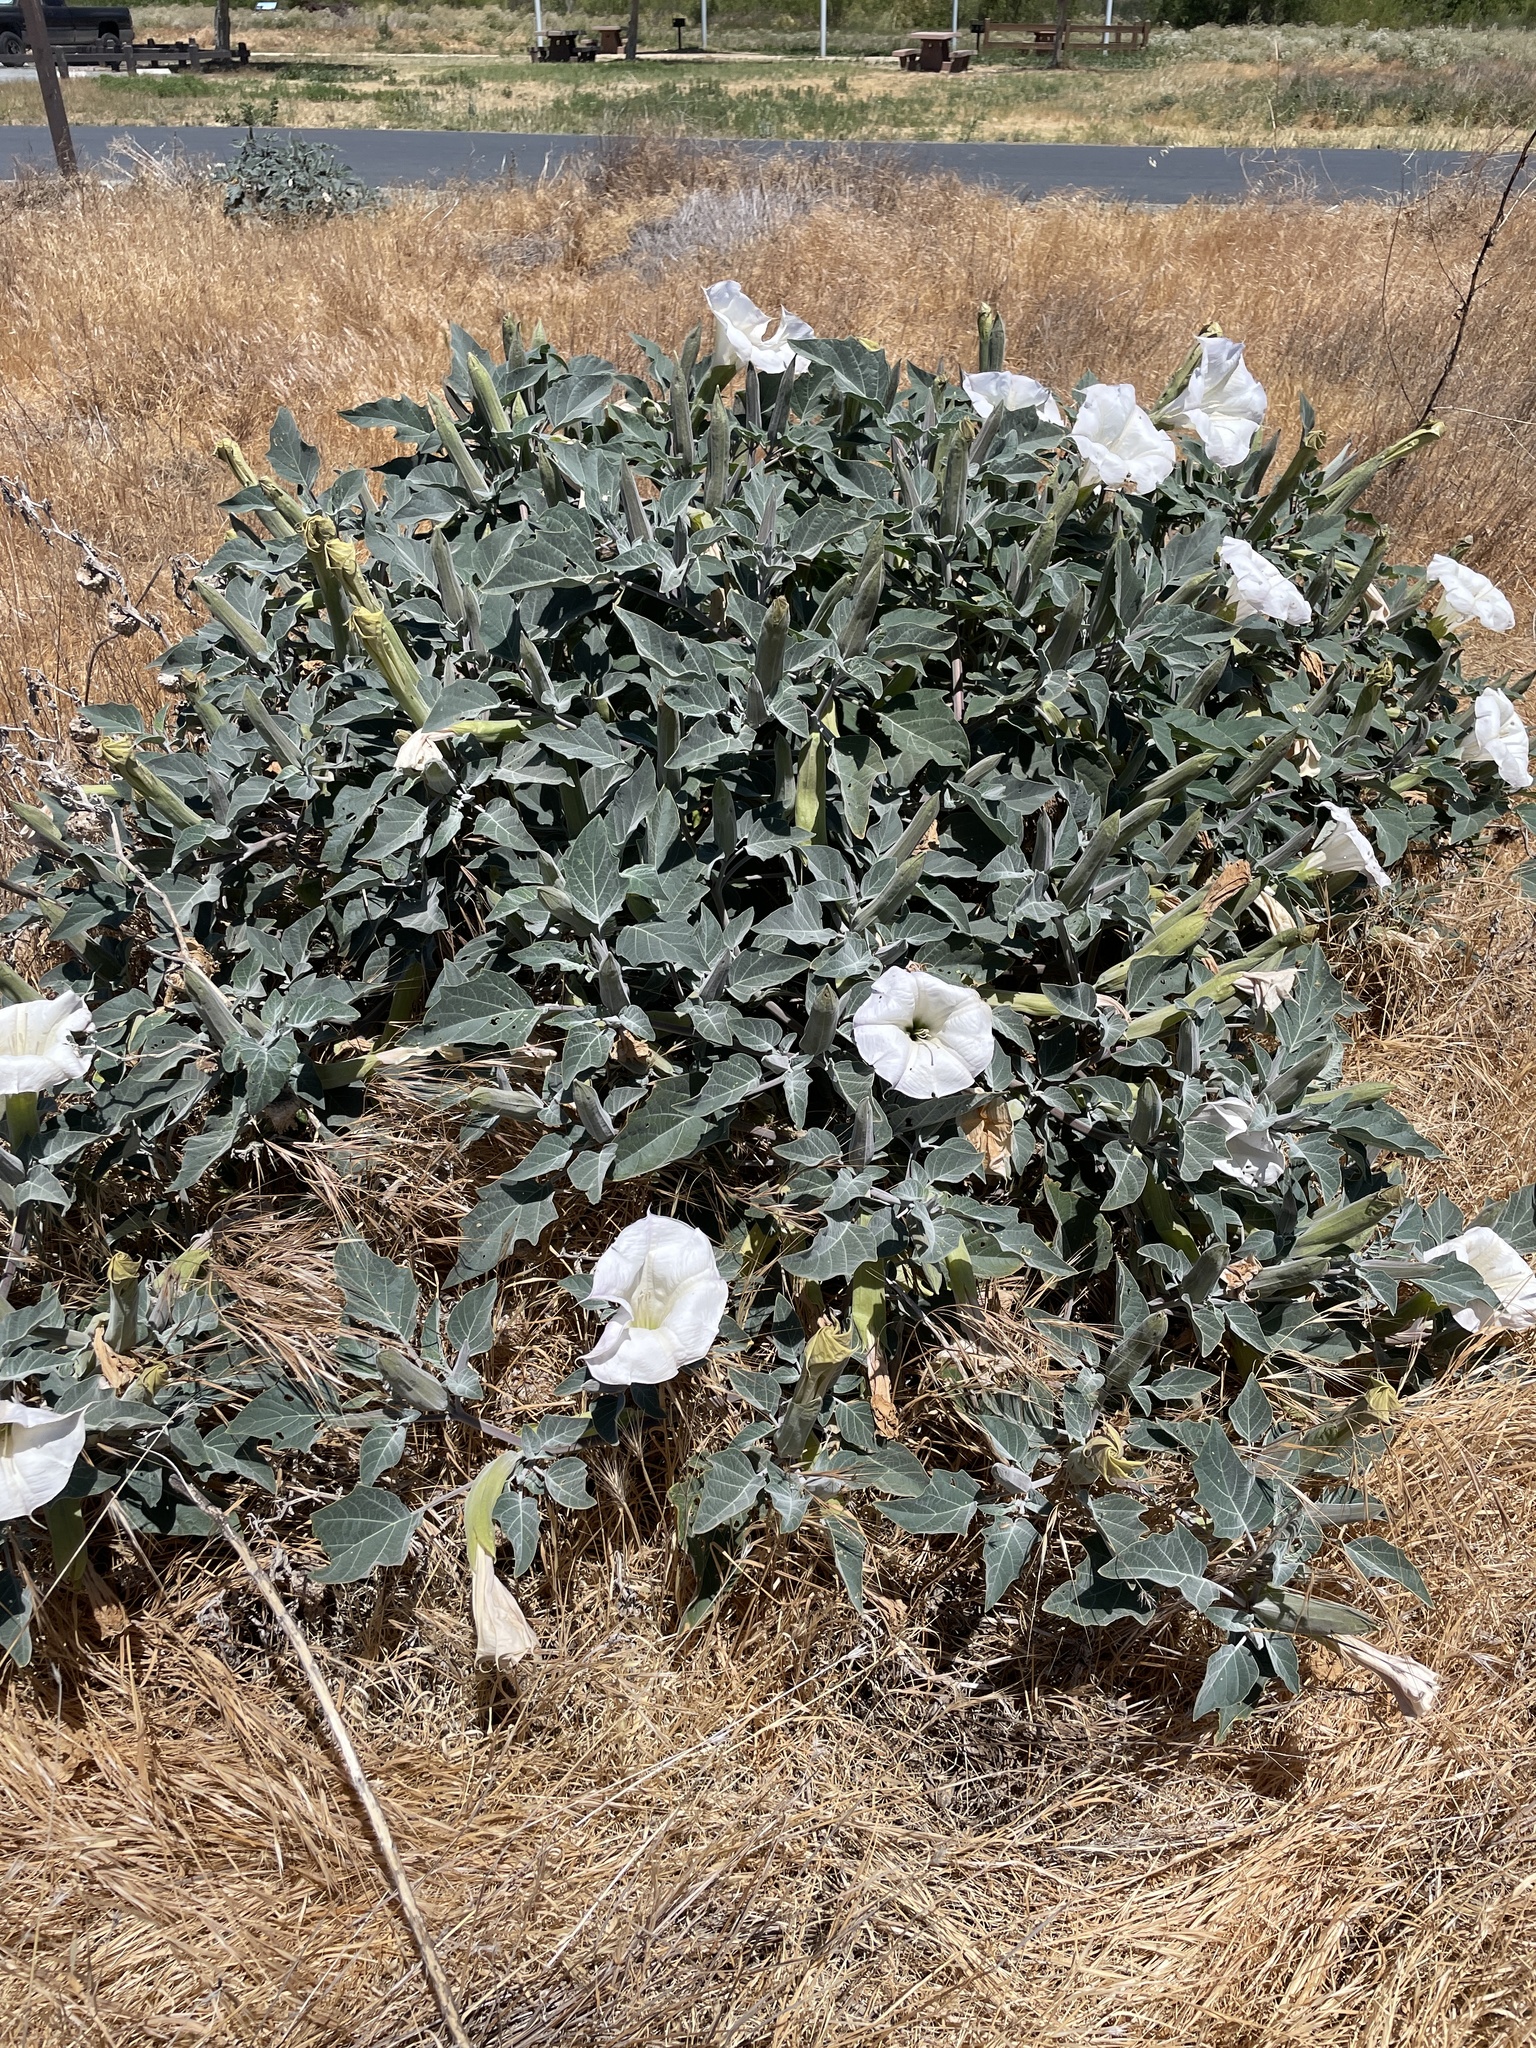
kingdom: Plantae
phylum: Tracheophyta
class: Magnoliopsida
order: Solanales
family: Solanaceae
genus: Datura
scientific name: Datura wrightii
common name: Sacred thorn-apple
